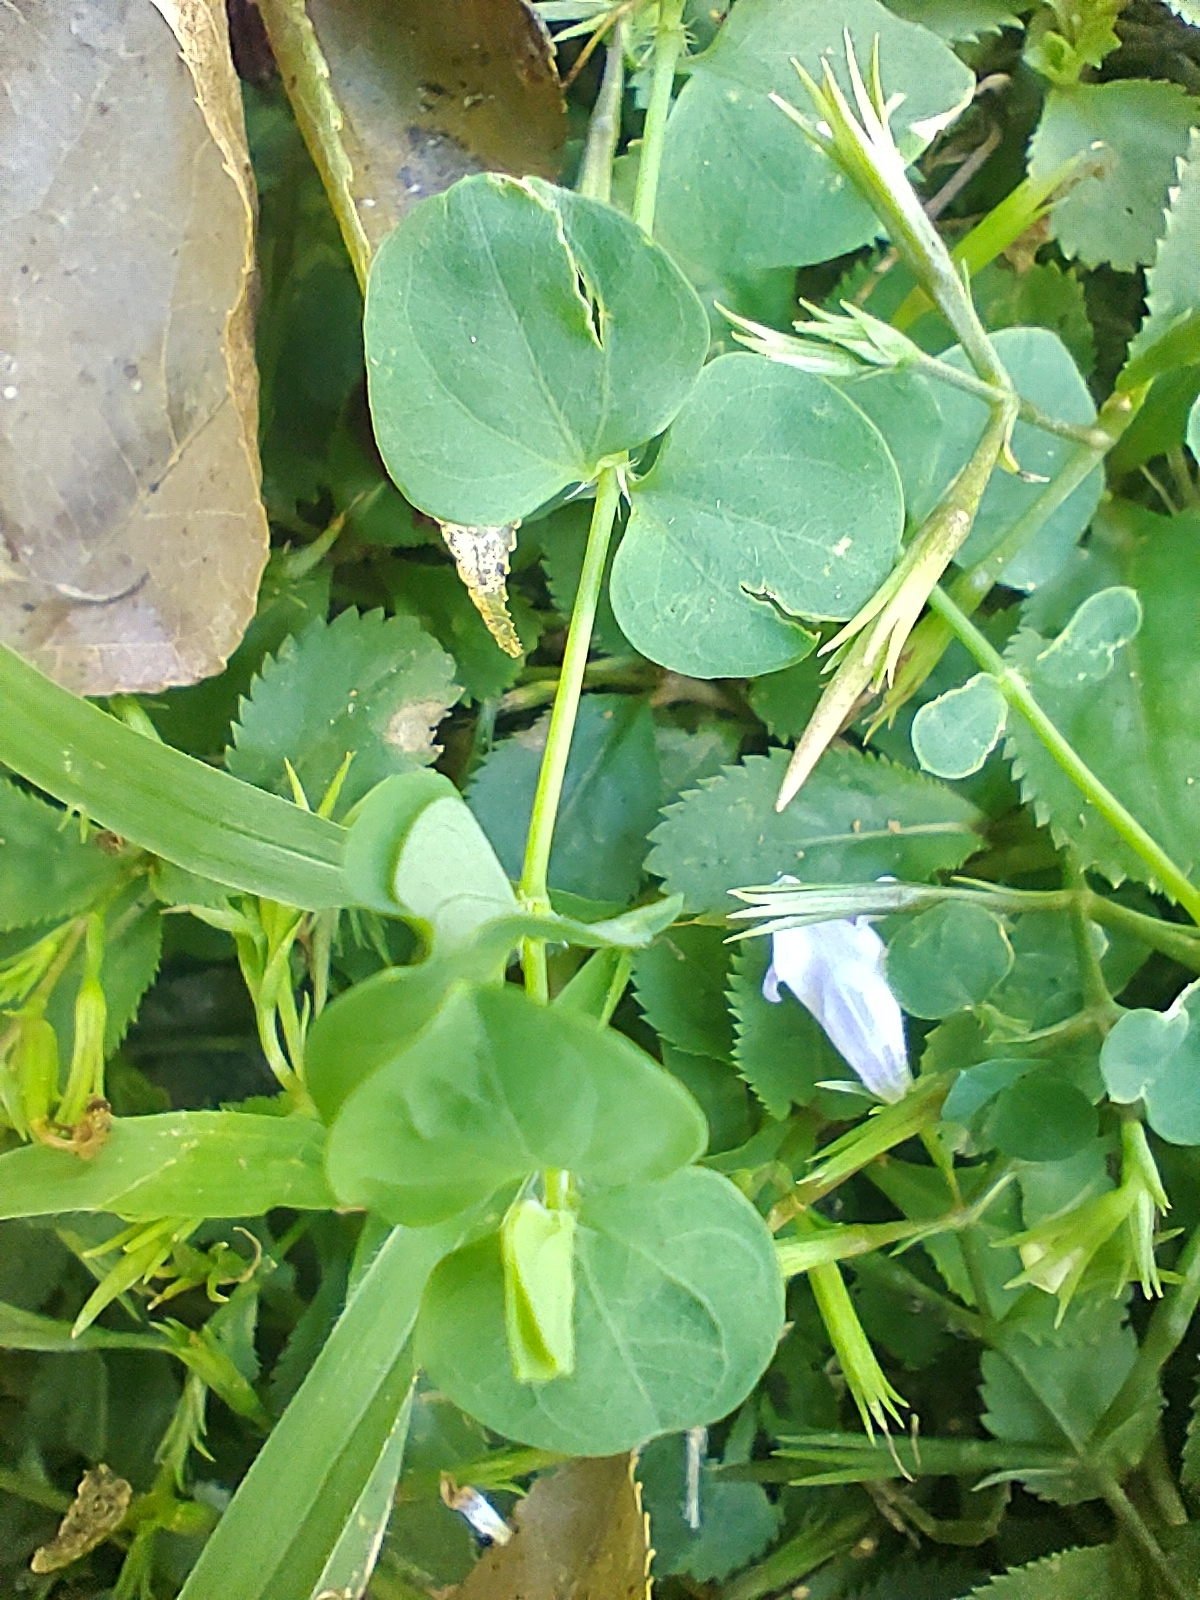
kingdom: Plantae
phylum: Tracheophyta
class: Magnoliopsida
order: Caryophyllales
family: Caryophyllaceae
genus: Drymaria
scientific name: Drymaria cordata
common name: Whitesnow
